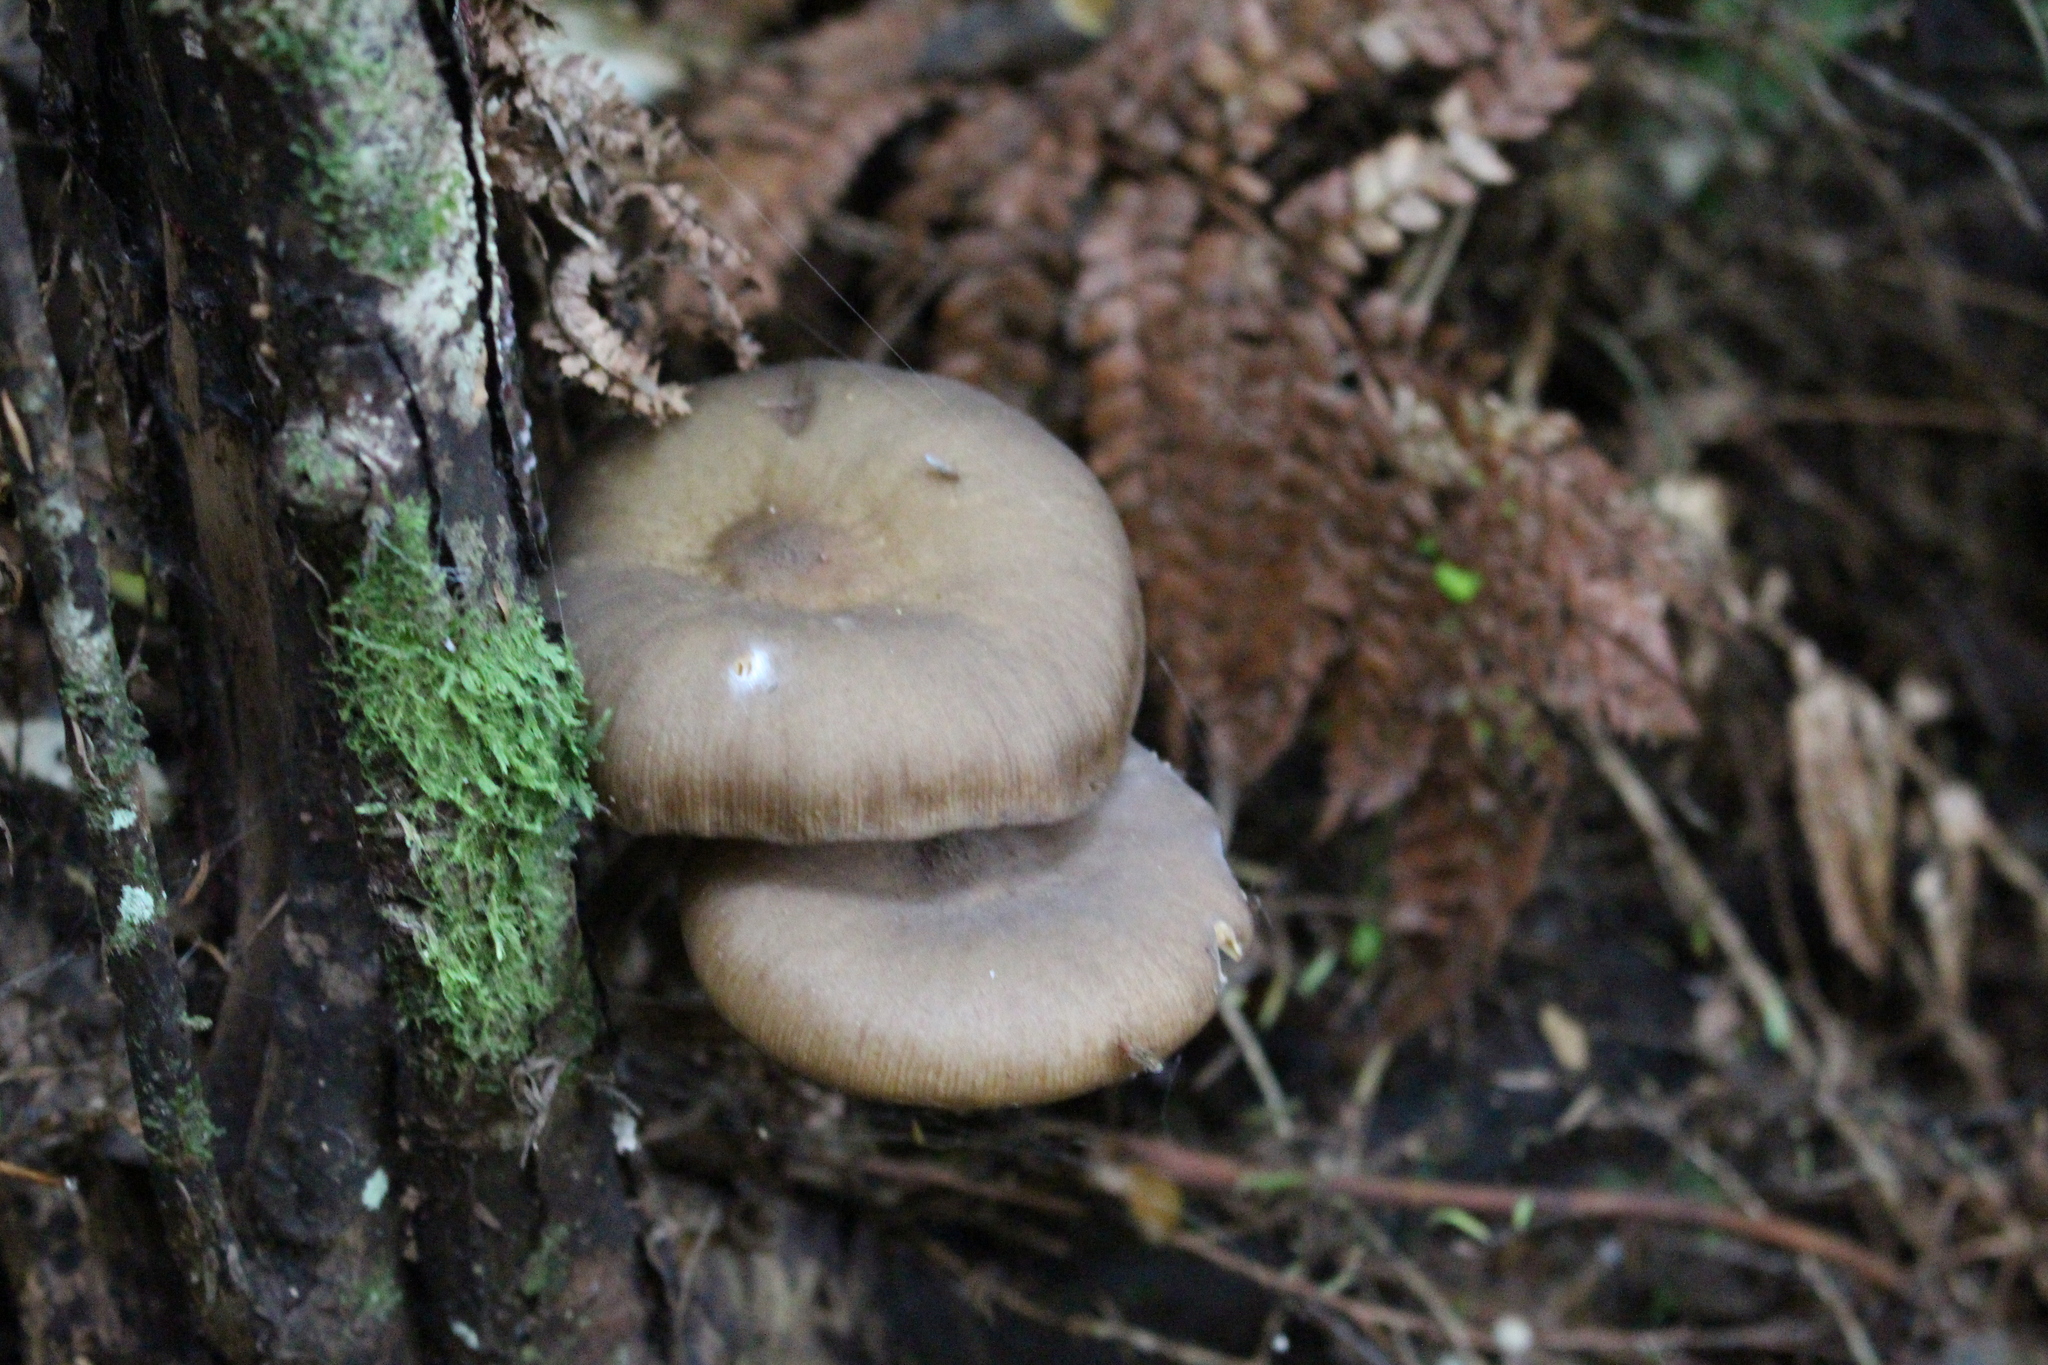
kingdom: Fungi
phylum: Basidiomycota
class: Agaricomycetes
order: Agaricales
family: Physalacriaceae
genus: Armillaria
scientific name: Armillaria novae-zelandiae
